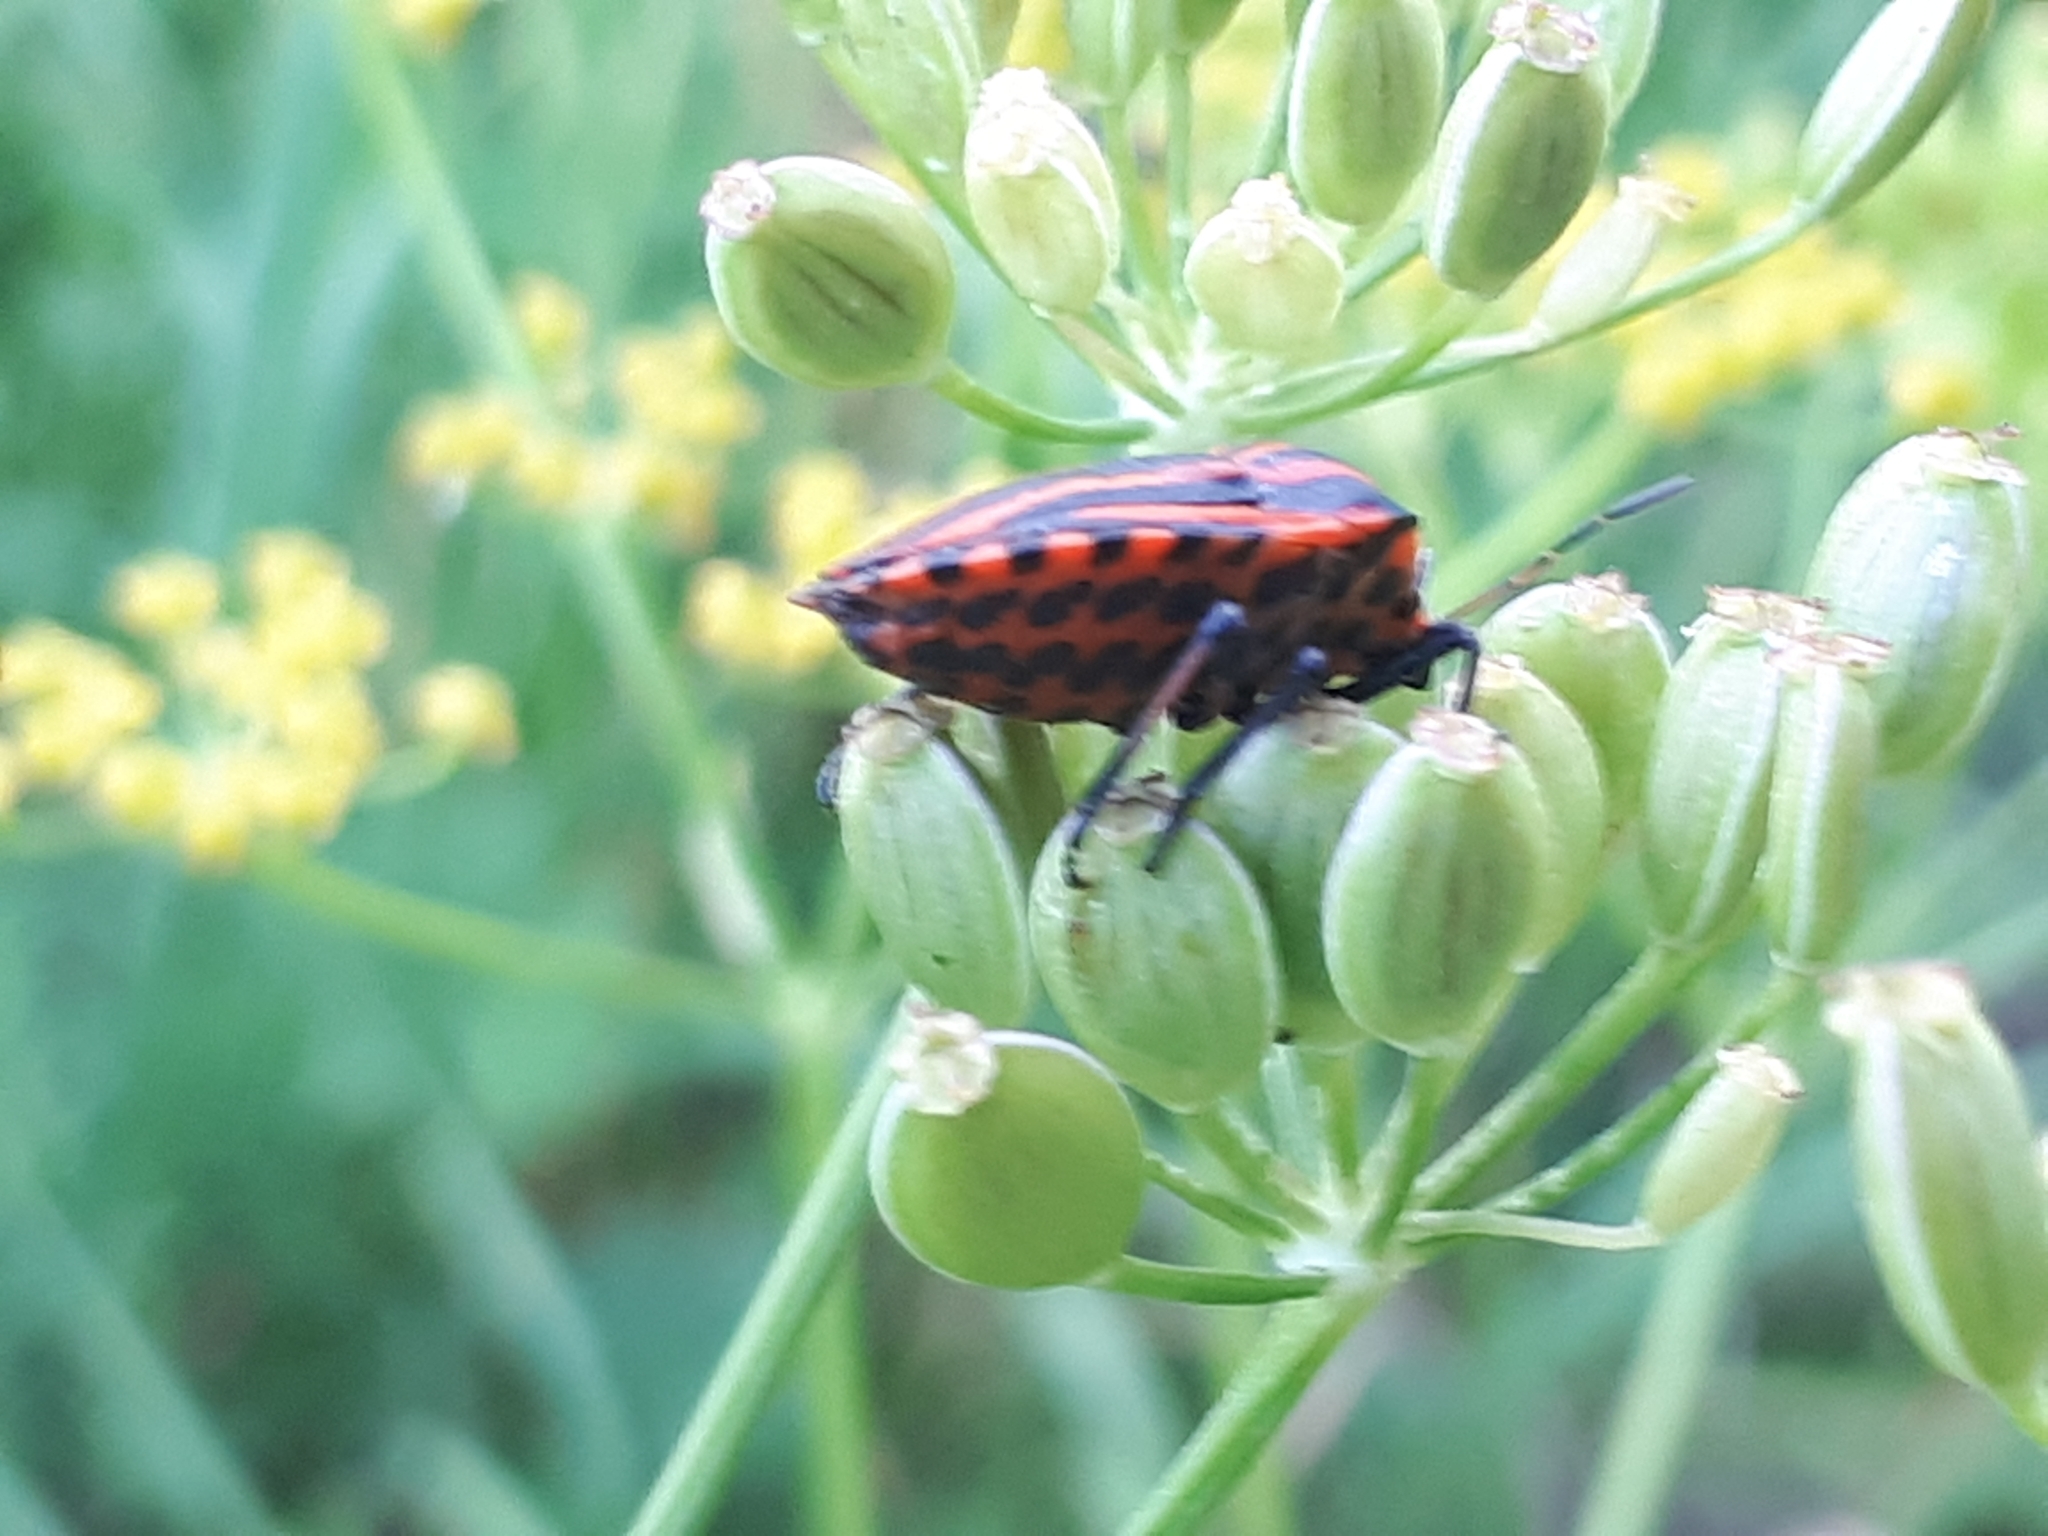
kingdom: Animalia
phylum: Arthropoda
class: Insecta
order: Hemiptera
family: Pentatomidae
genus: Graphosoma
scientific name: Graphosoma italicum
